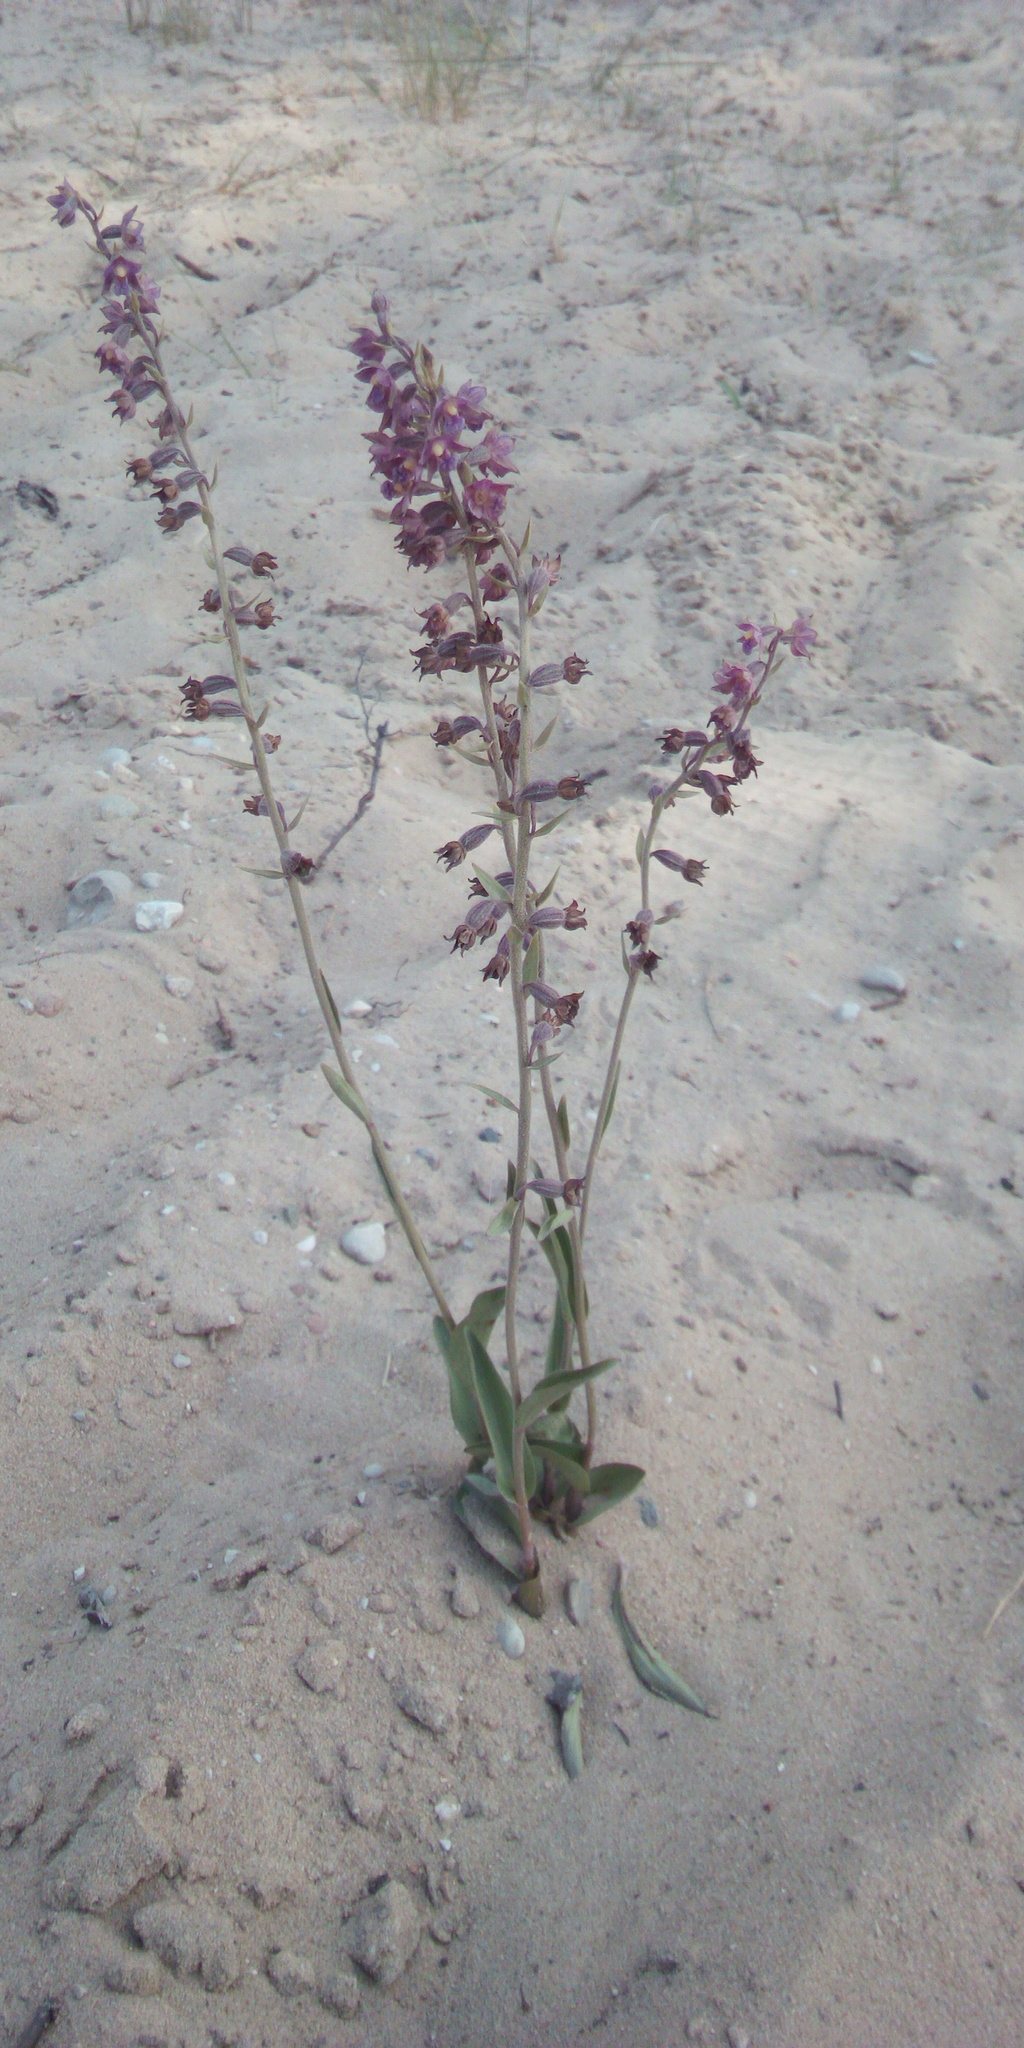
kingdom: Plantae
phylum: Tracheophyta
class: Liliopsida
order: Asparagales
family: Orchidaceae
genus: Epipactis
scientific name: Epipactis atrorubens
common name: Dark-red helleborine
